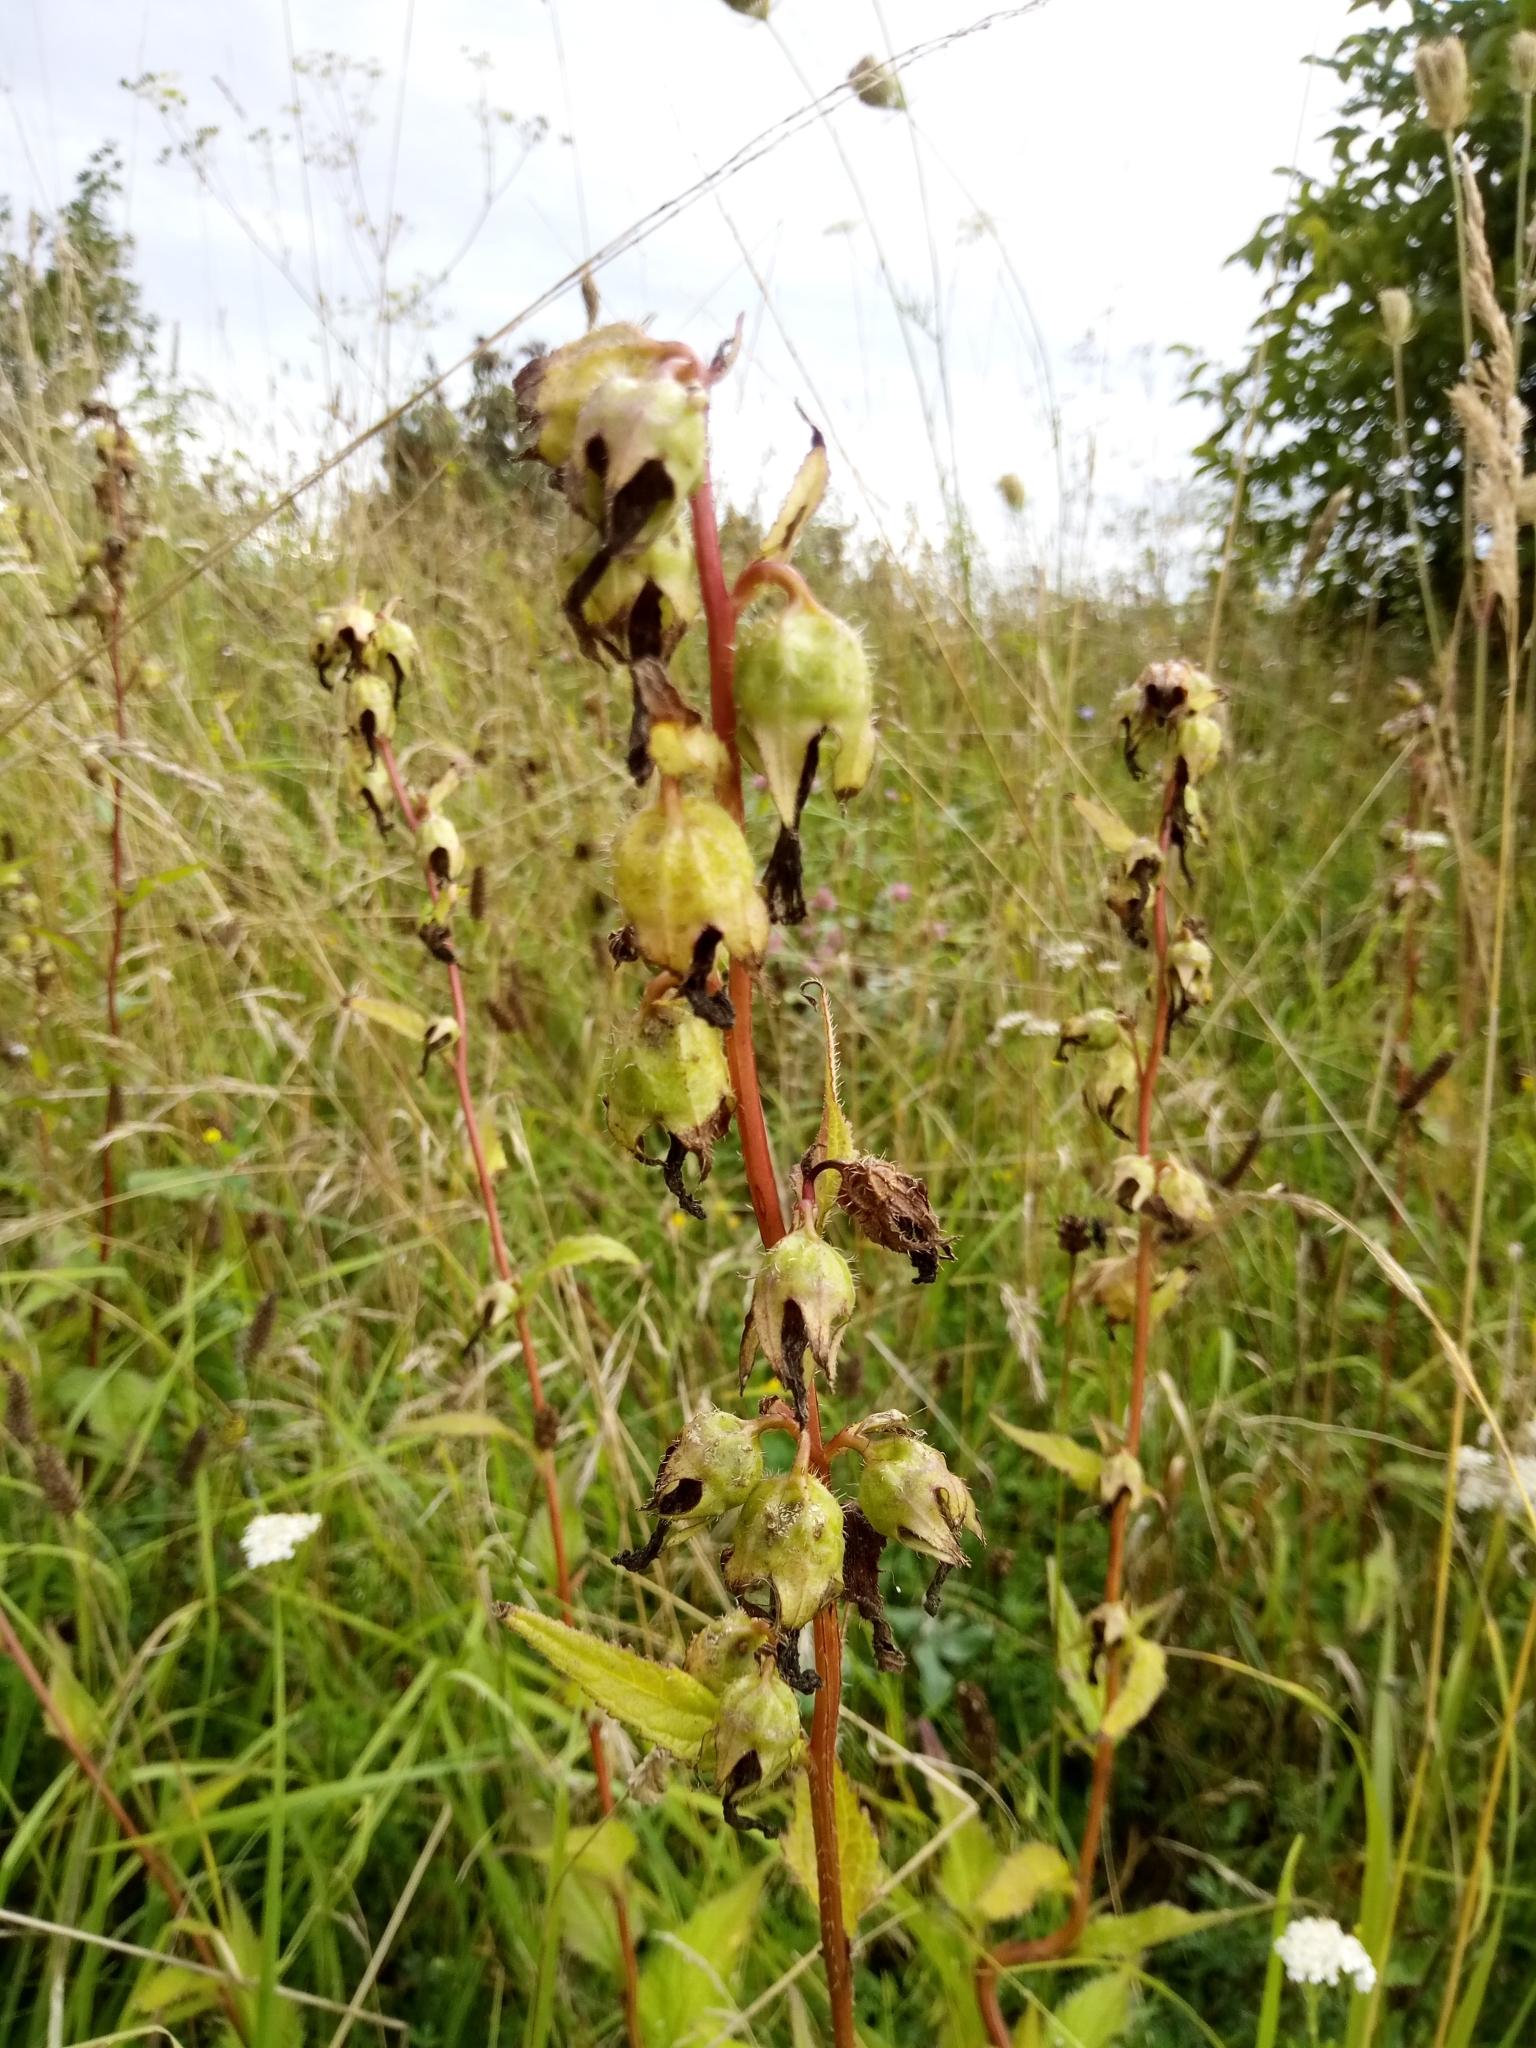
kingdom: Plantae
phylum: Tracheophyta
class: Magnoliopsida
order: Asterales
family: Campanulaceae
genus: Campanula
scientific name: Campanula trachelium
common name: Nettle-leaved bellflower
